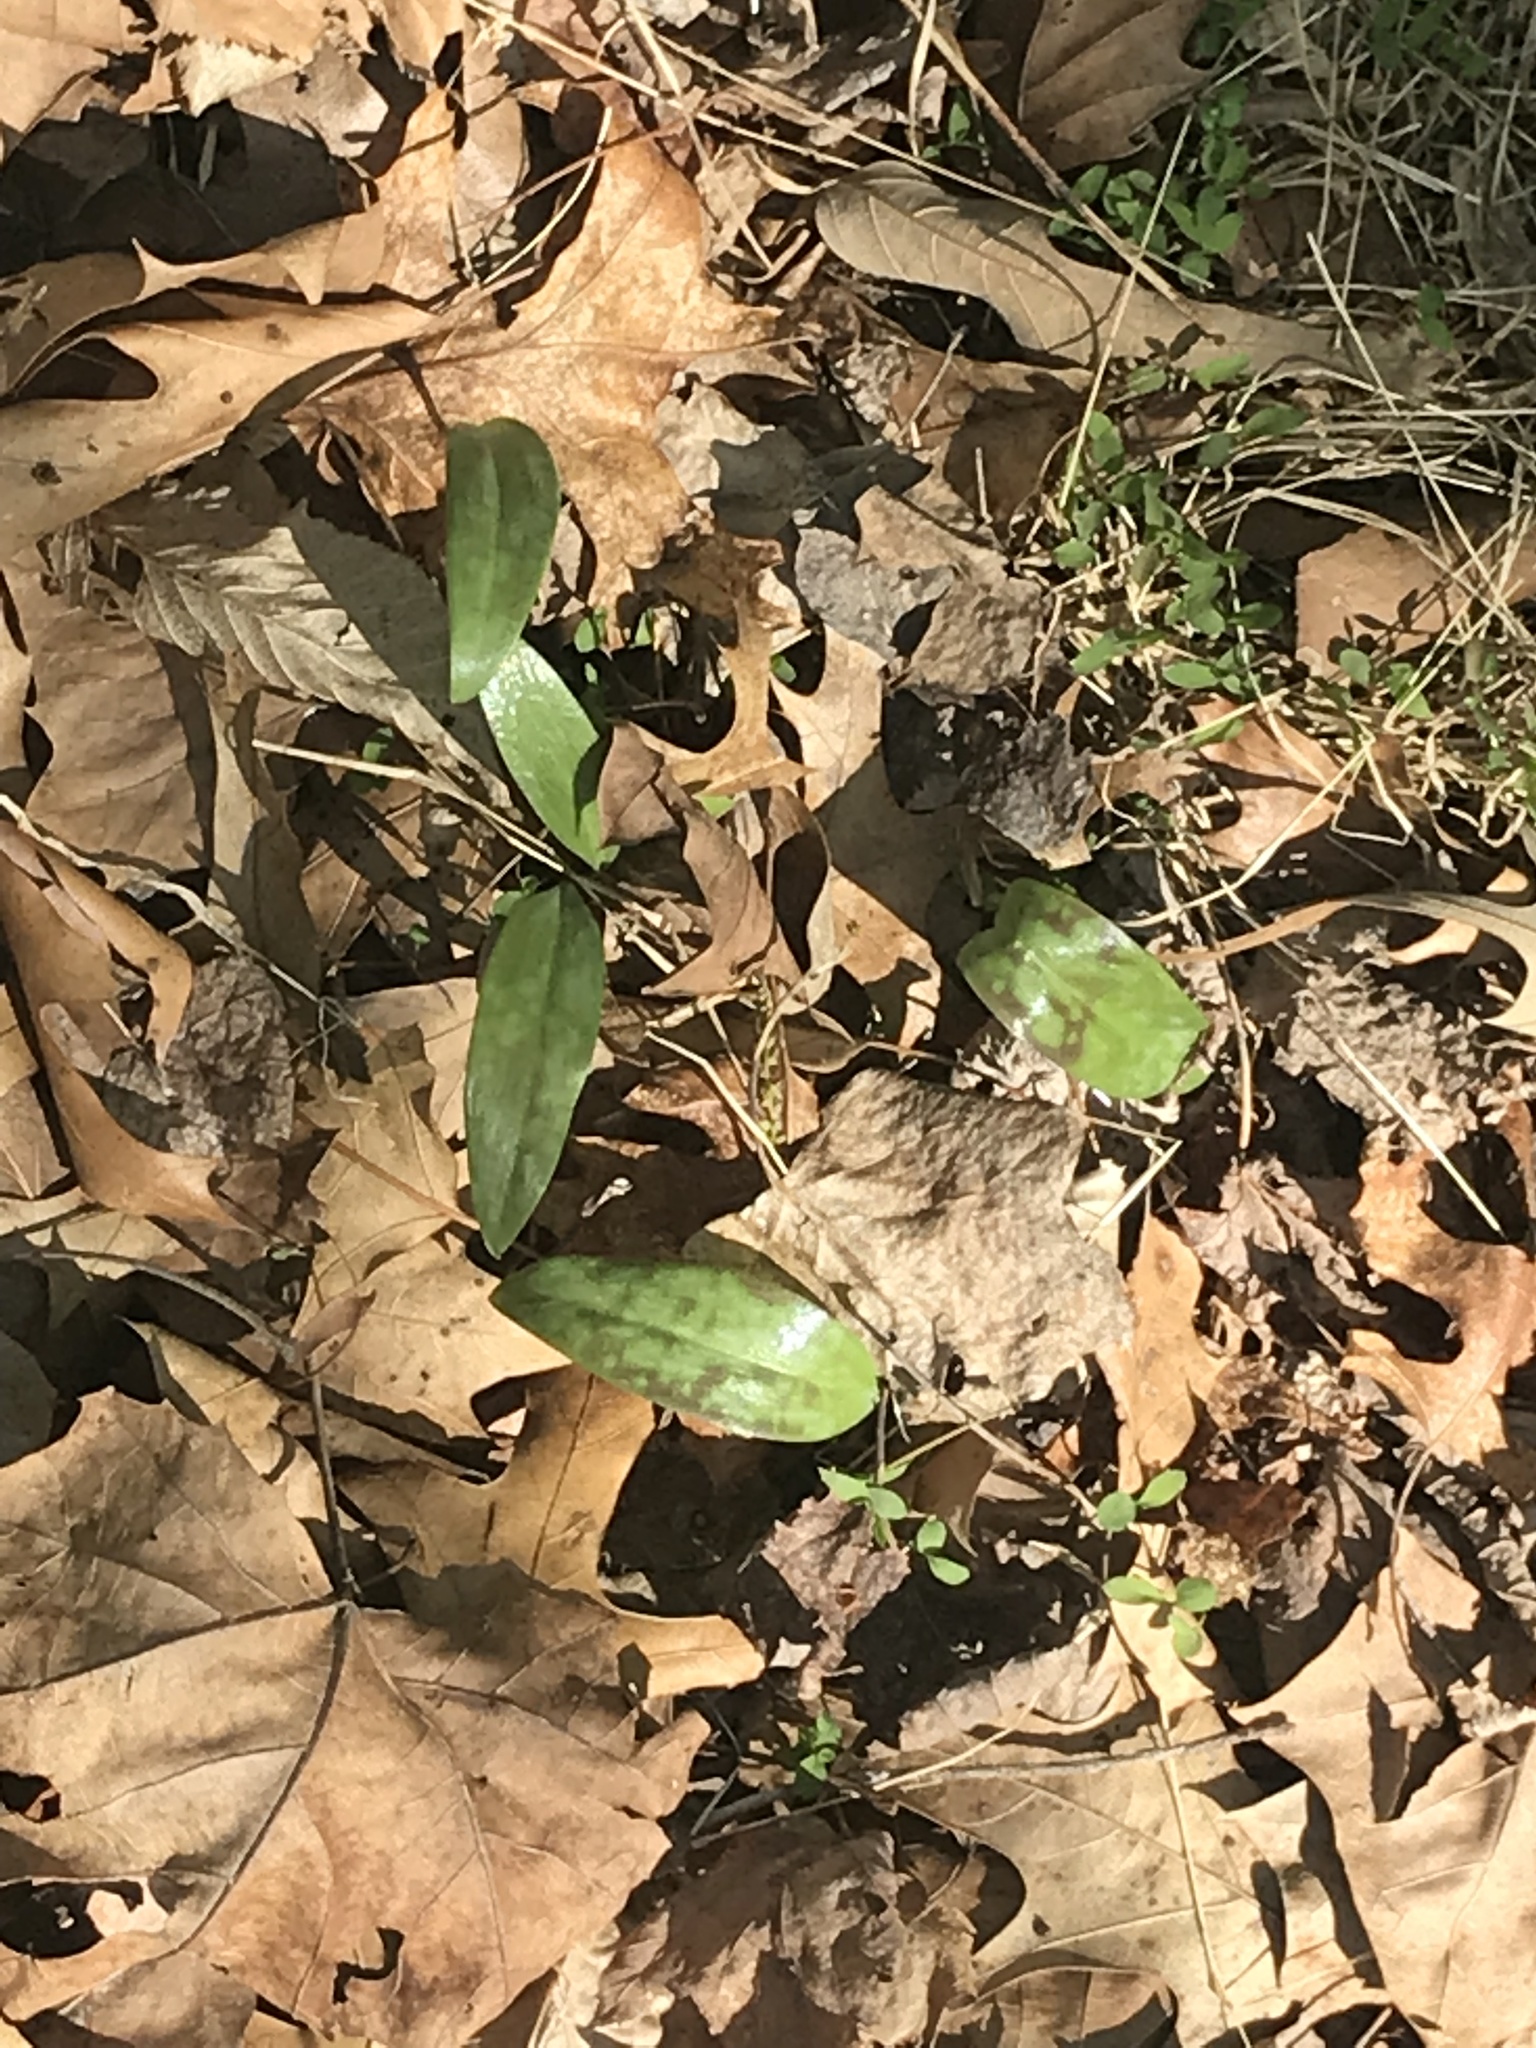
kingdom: Plantae
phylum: Tracheophyta
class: Liliopsida
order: Liliales
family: Liliaceae
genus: Erythronium
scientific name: Erythronium americanum
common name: Yellow adder's-tongue
